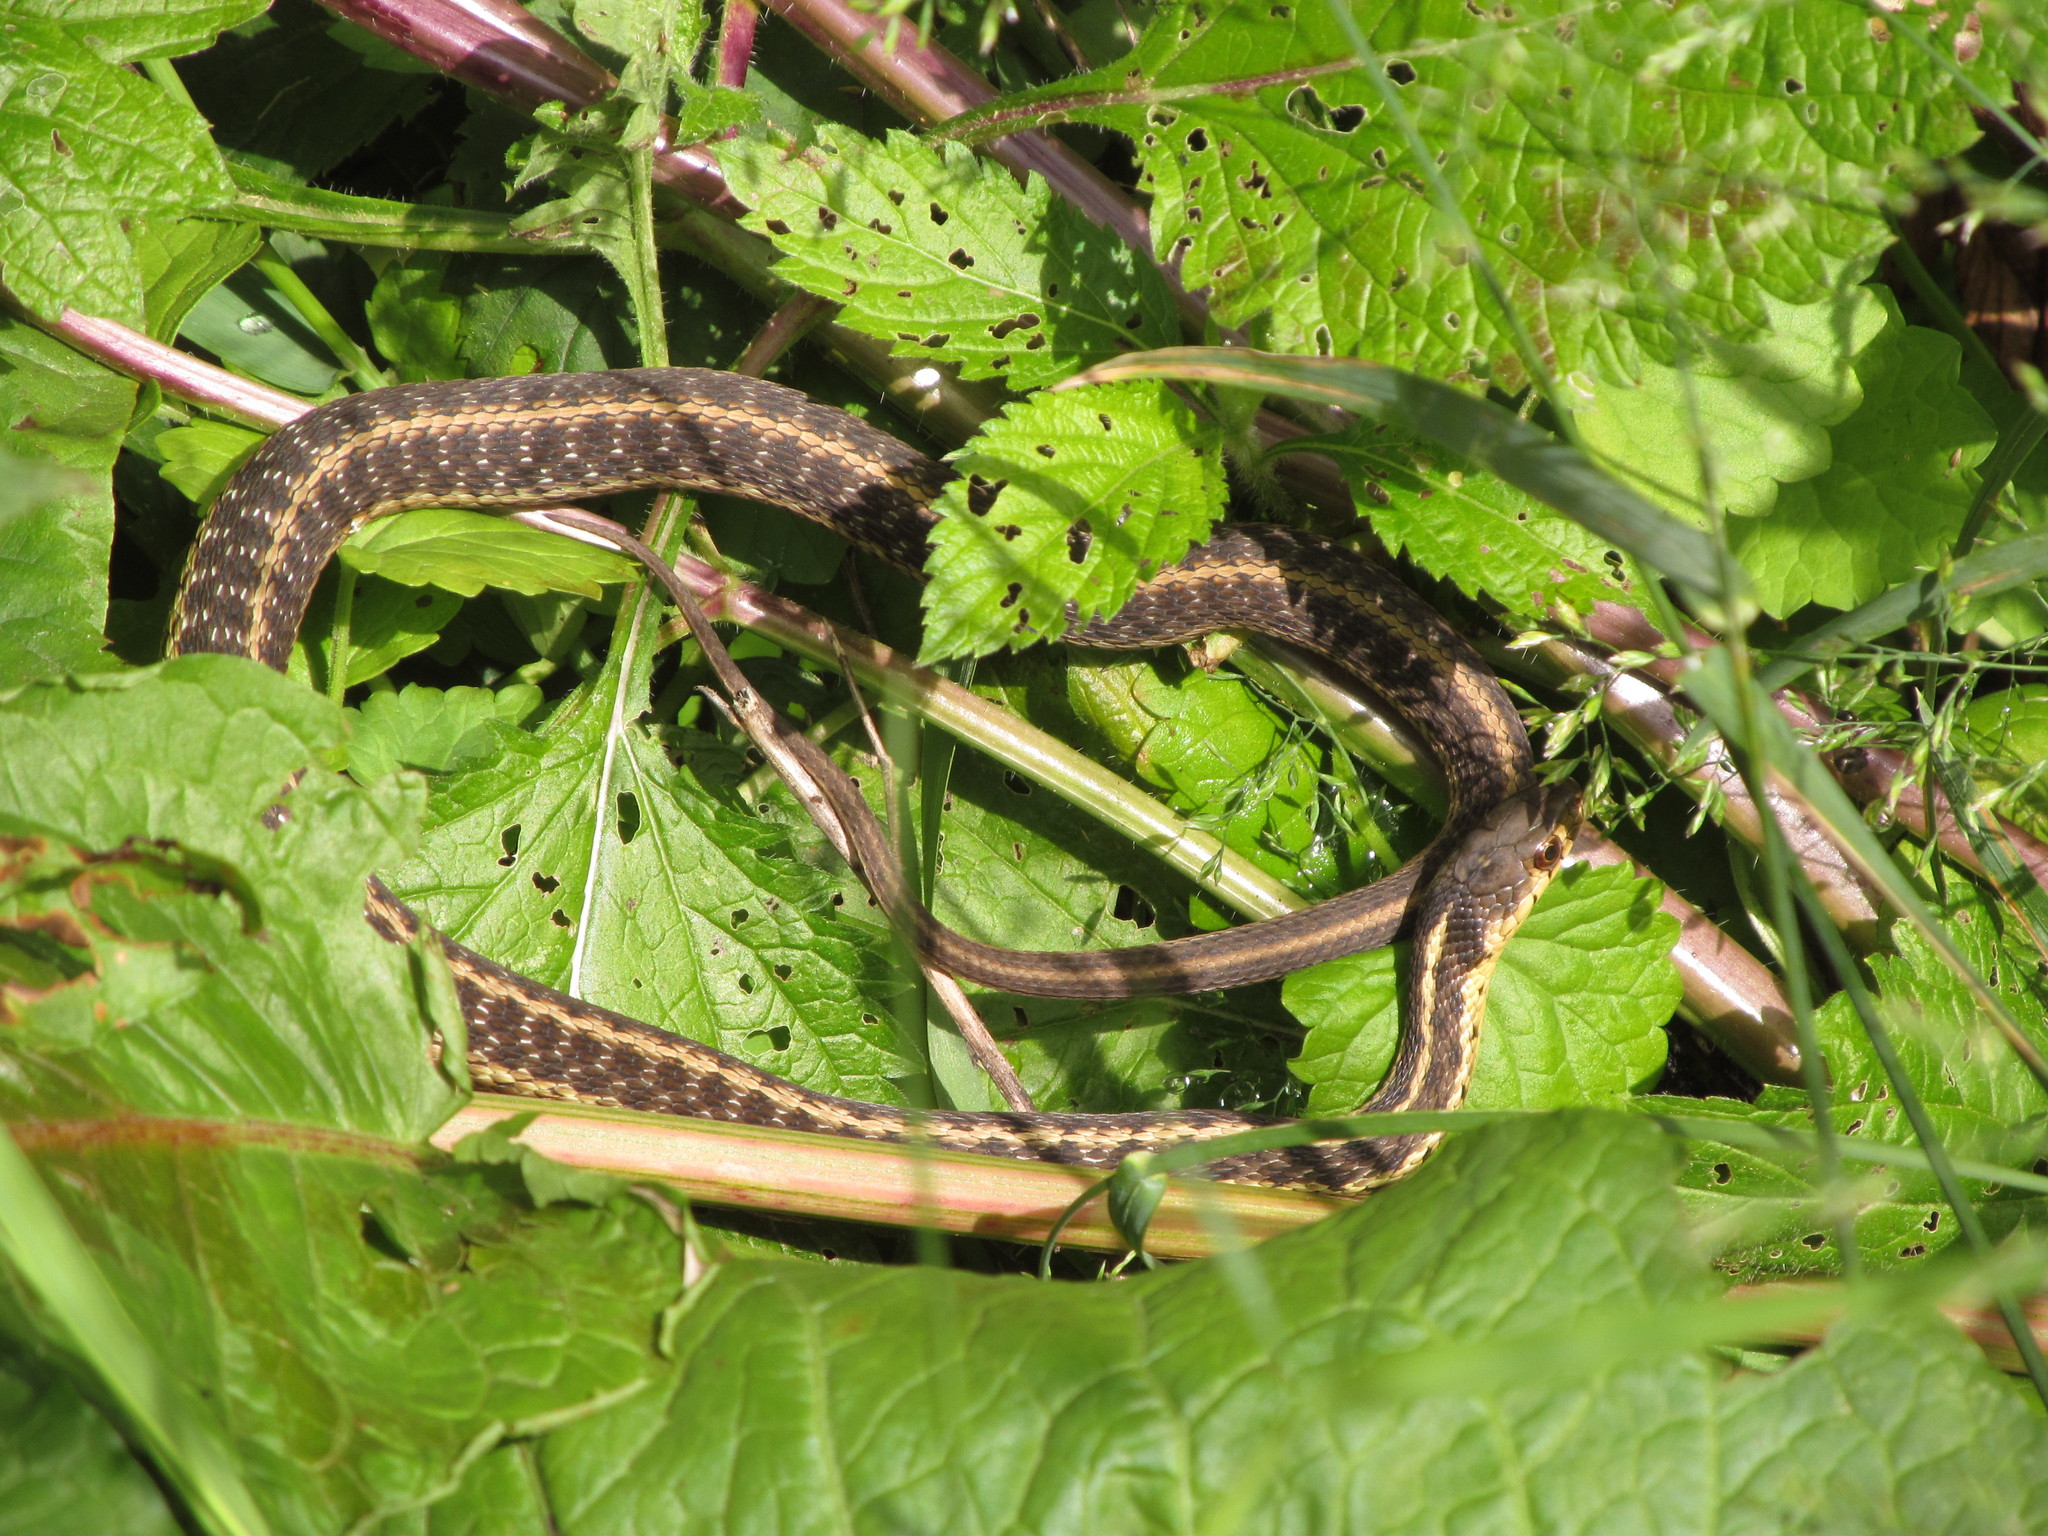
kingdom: Animalia
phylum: Chordata
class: Squamata
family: Colubridae
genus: Thamnophis
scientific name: Thamnophis sirtalis
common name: Common garter snake
